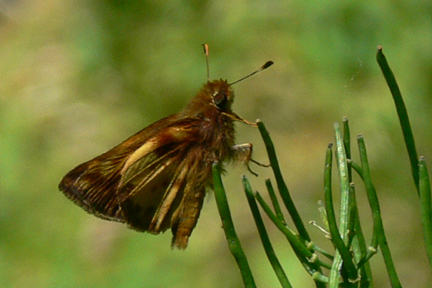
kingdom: Animalia
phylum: Arthropoda
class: Insecta
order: Lepidoptera
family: Hesperiidae
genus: Lon
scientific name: Lon zabulon
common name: Zabulon skipper
